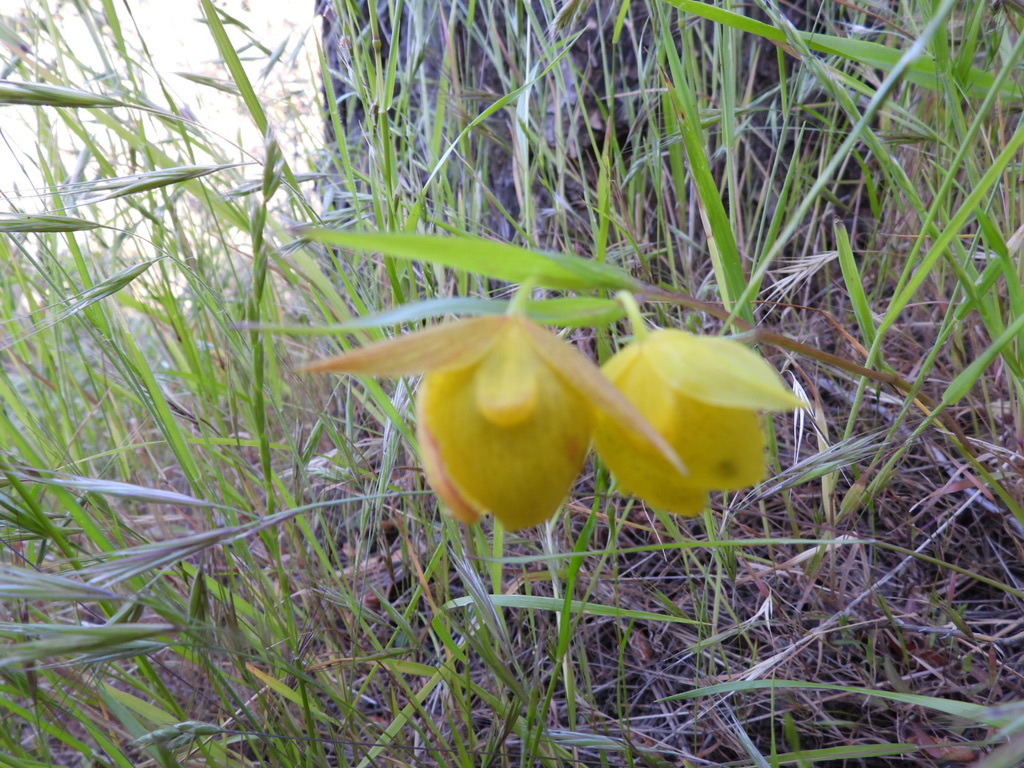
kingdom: Plantae
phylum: Tracheophyta
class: Liliopsida
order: Liliales
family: Liliaceae
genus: Calochortus
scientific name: Calochortus pulchellus
